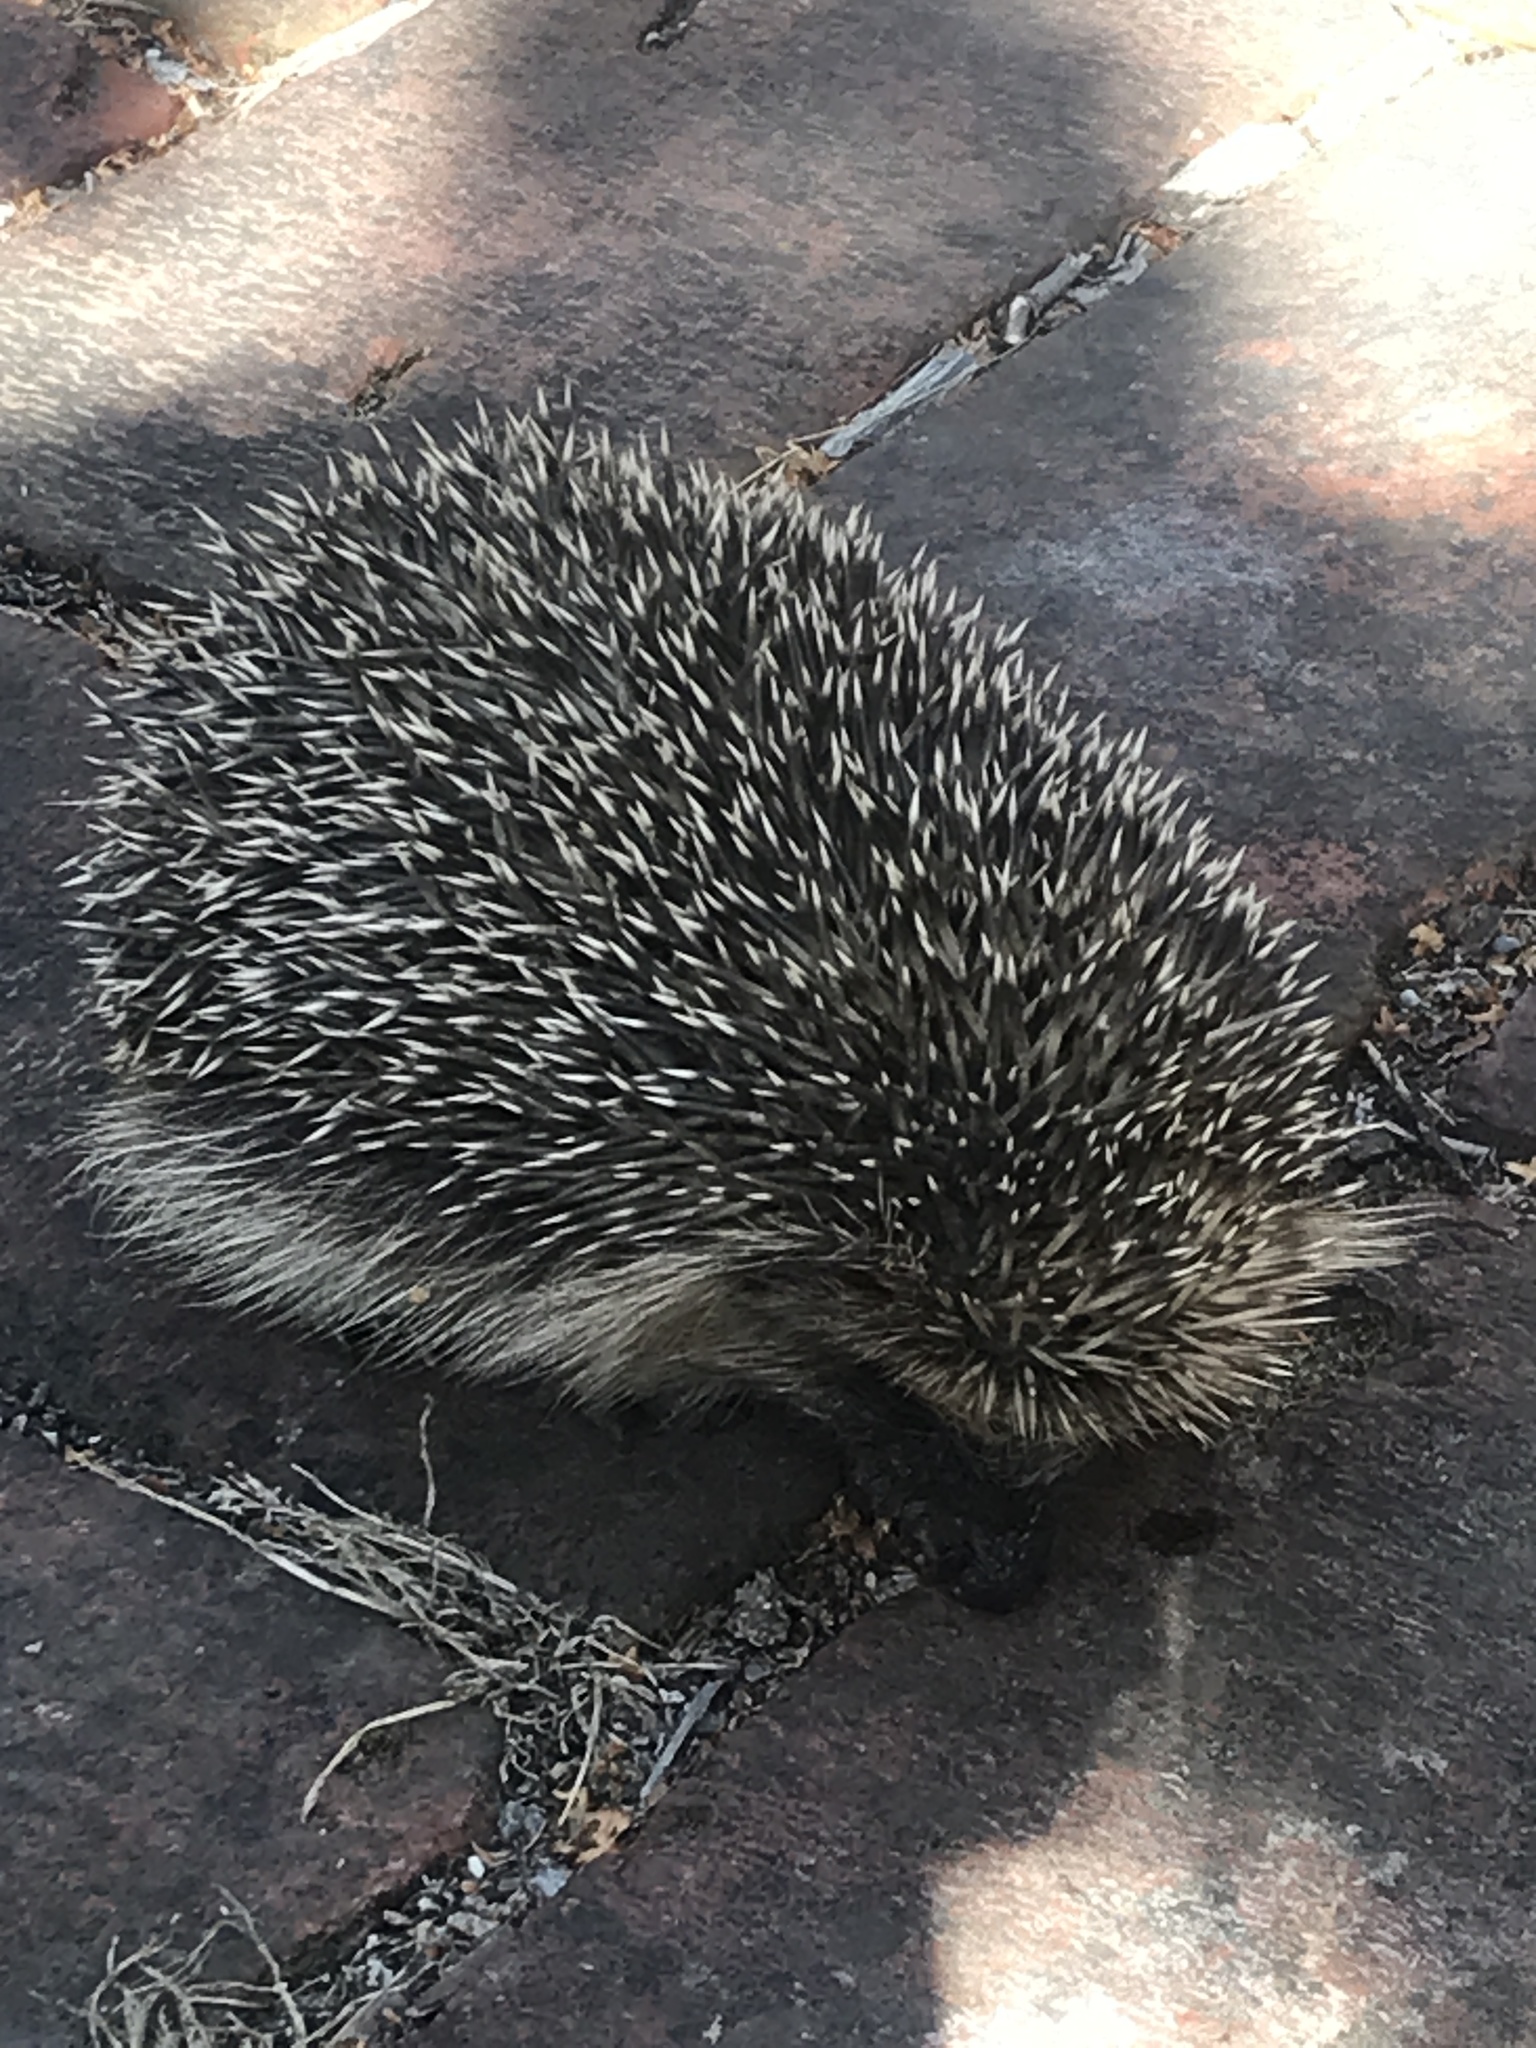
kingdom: Animalia
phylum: Chordata
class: Mammalia
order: Erinaceomorpha
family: Erinaceidae
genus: Erinaceus
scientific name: Erinaceus europaeus
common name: West european hedgehog
